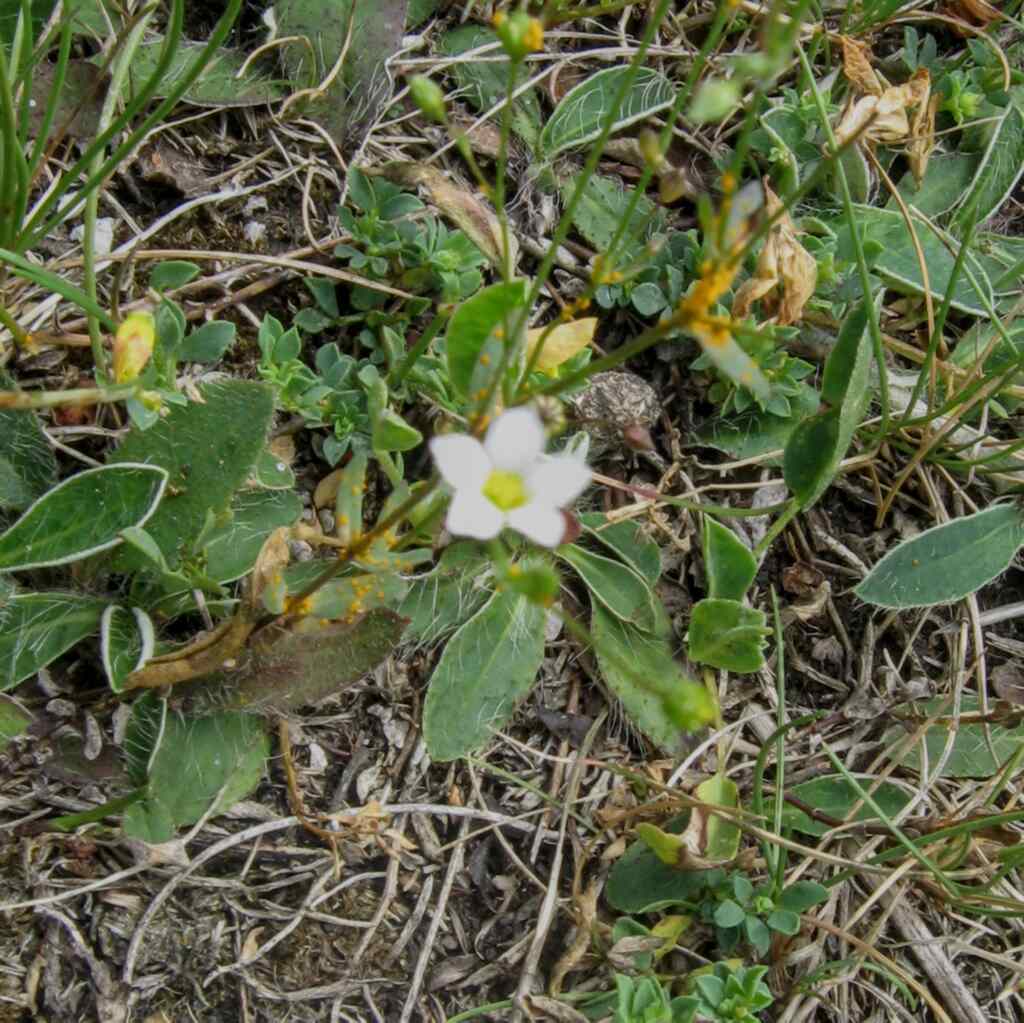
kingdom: Plantae
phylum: Tracheophyta
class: Magnoliopsida
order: Malpighiales
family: Linaceae
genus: Linum
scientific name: Linum catharticum
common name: Fairy flax
